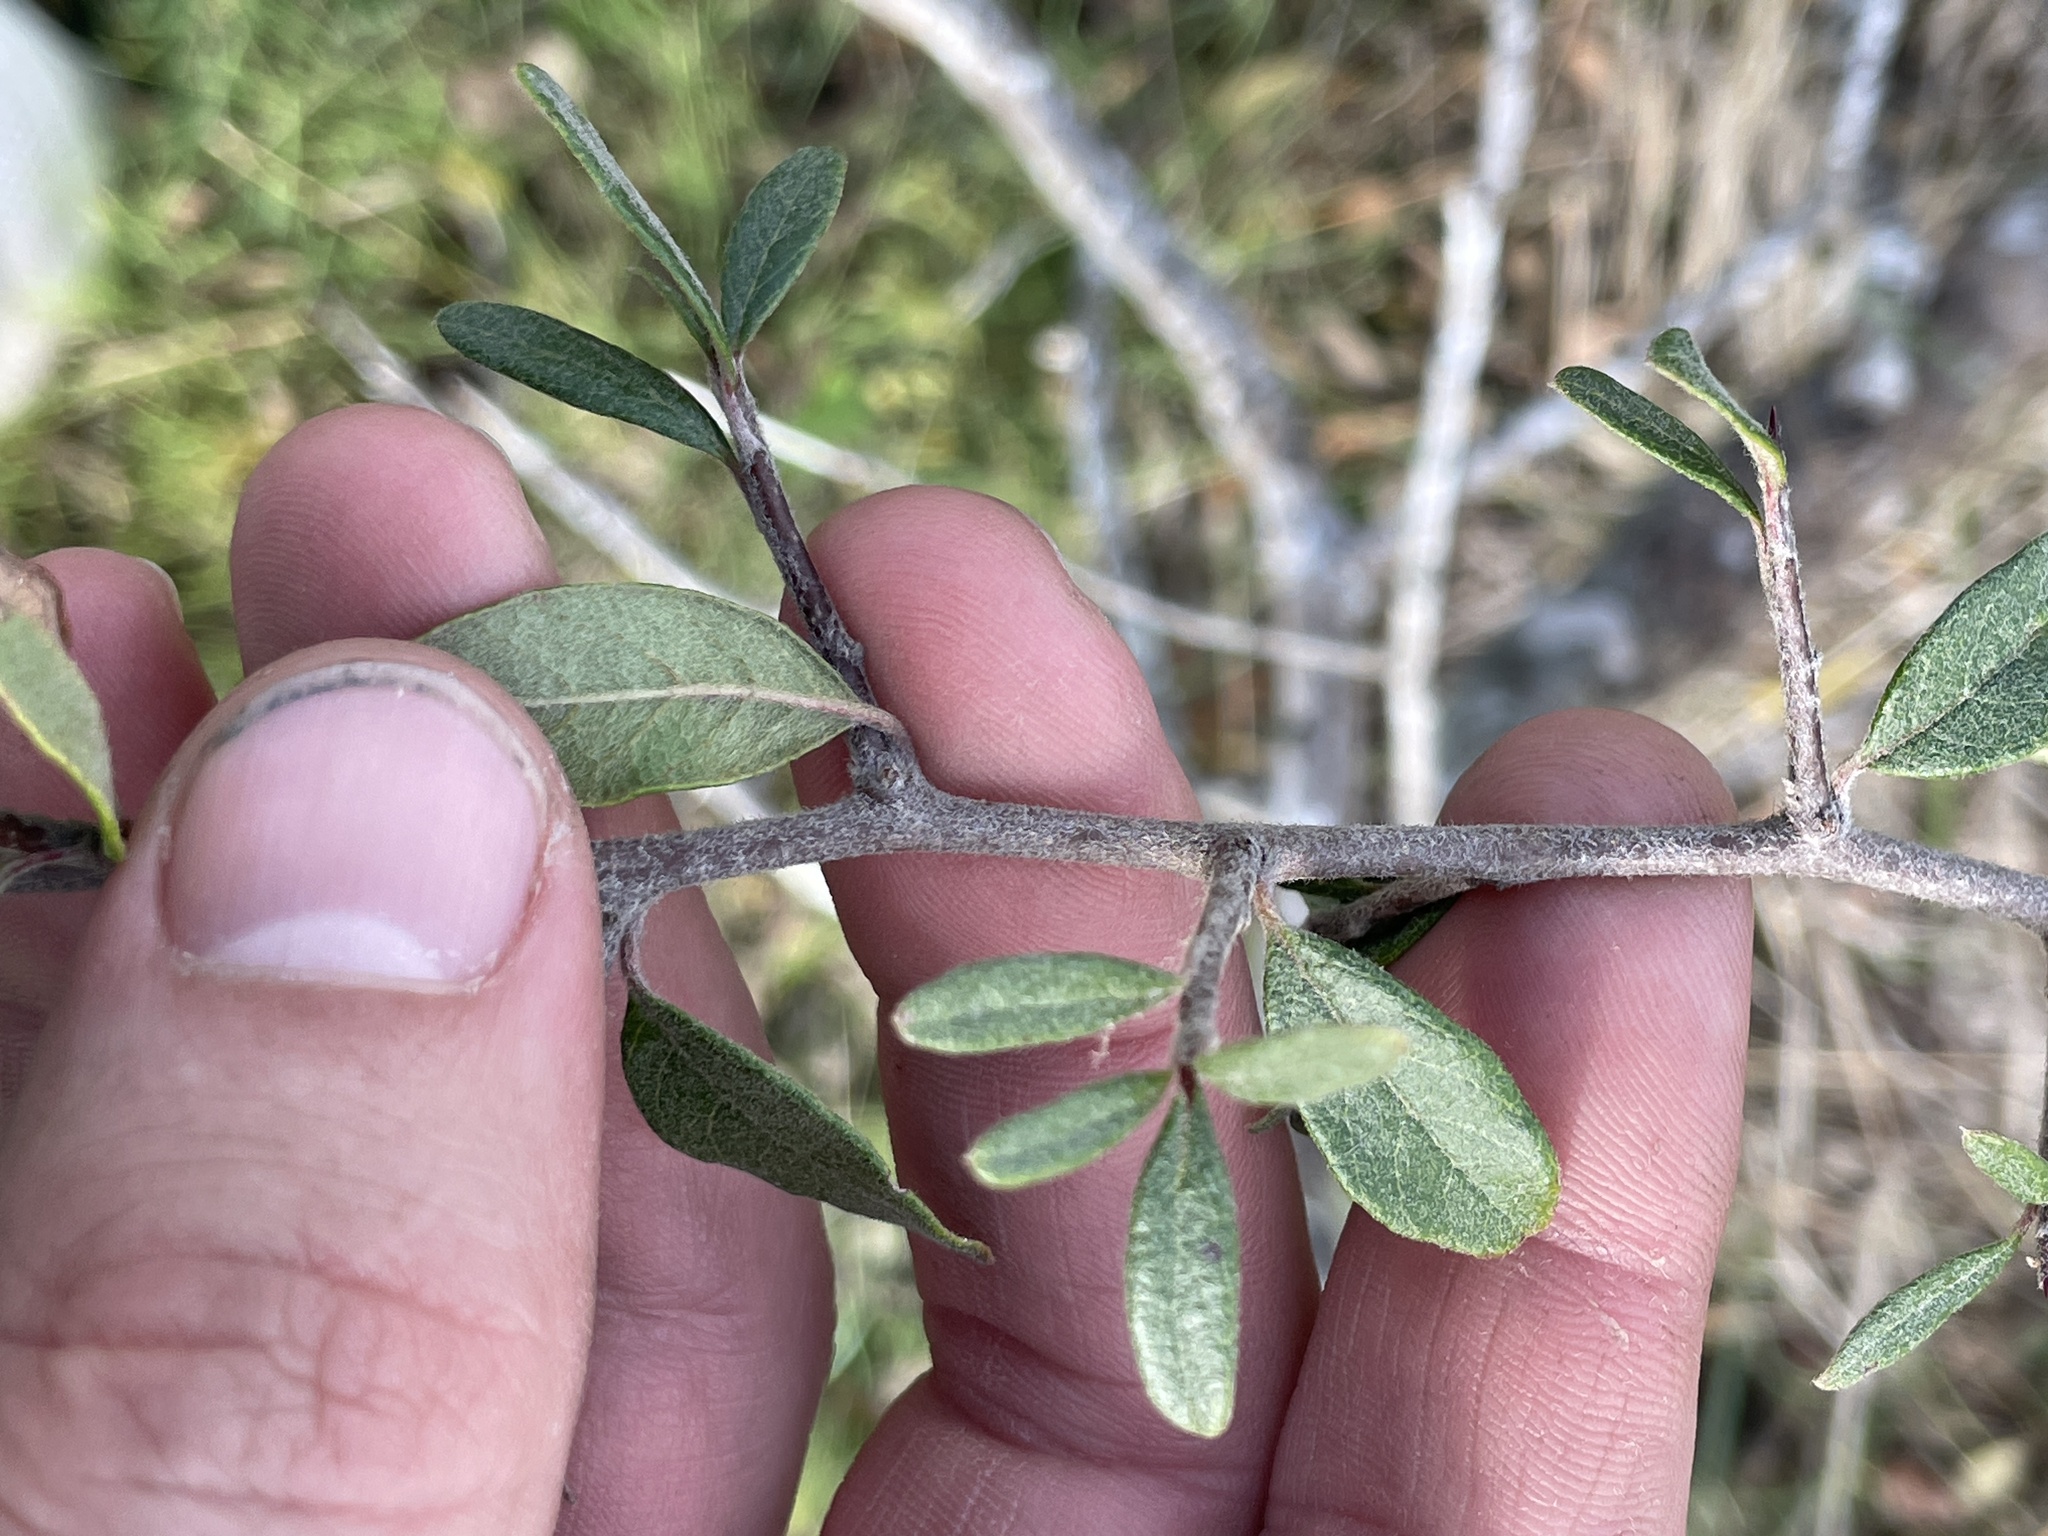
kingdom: Plantae
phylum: Tracheophyta
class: Magnoliopsida
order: Ericales
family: Sapotaceae
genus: Sideroxylon
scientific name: Sideroxylon lanuginosum
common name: Chittamwood
